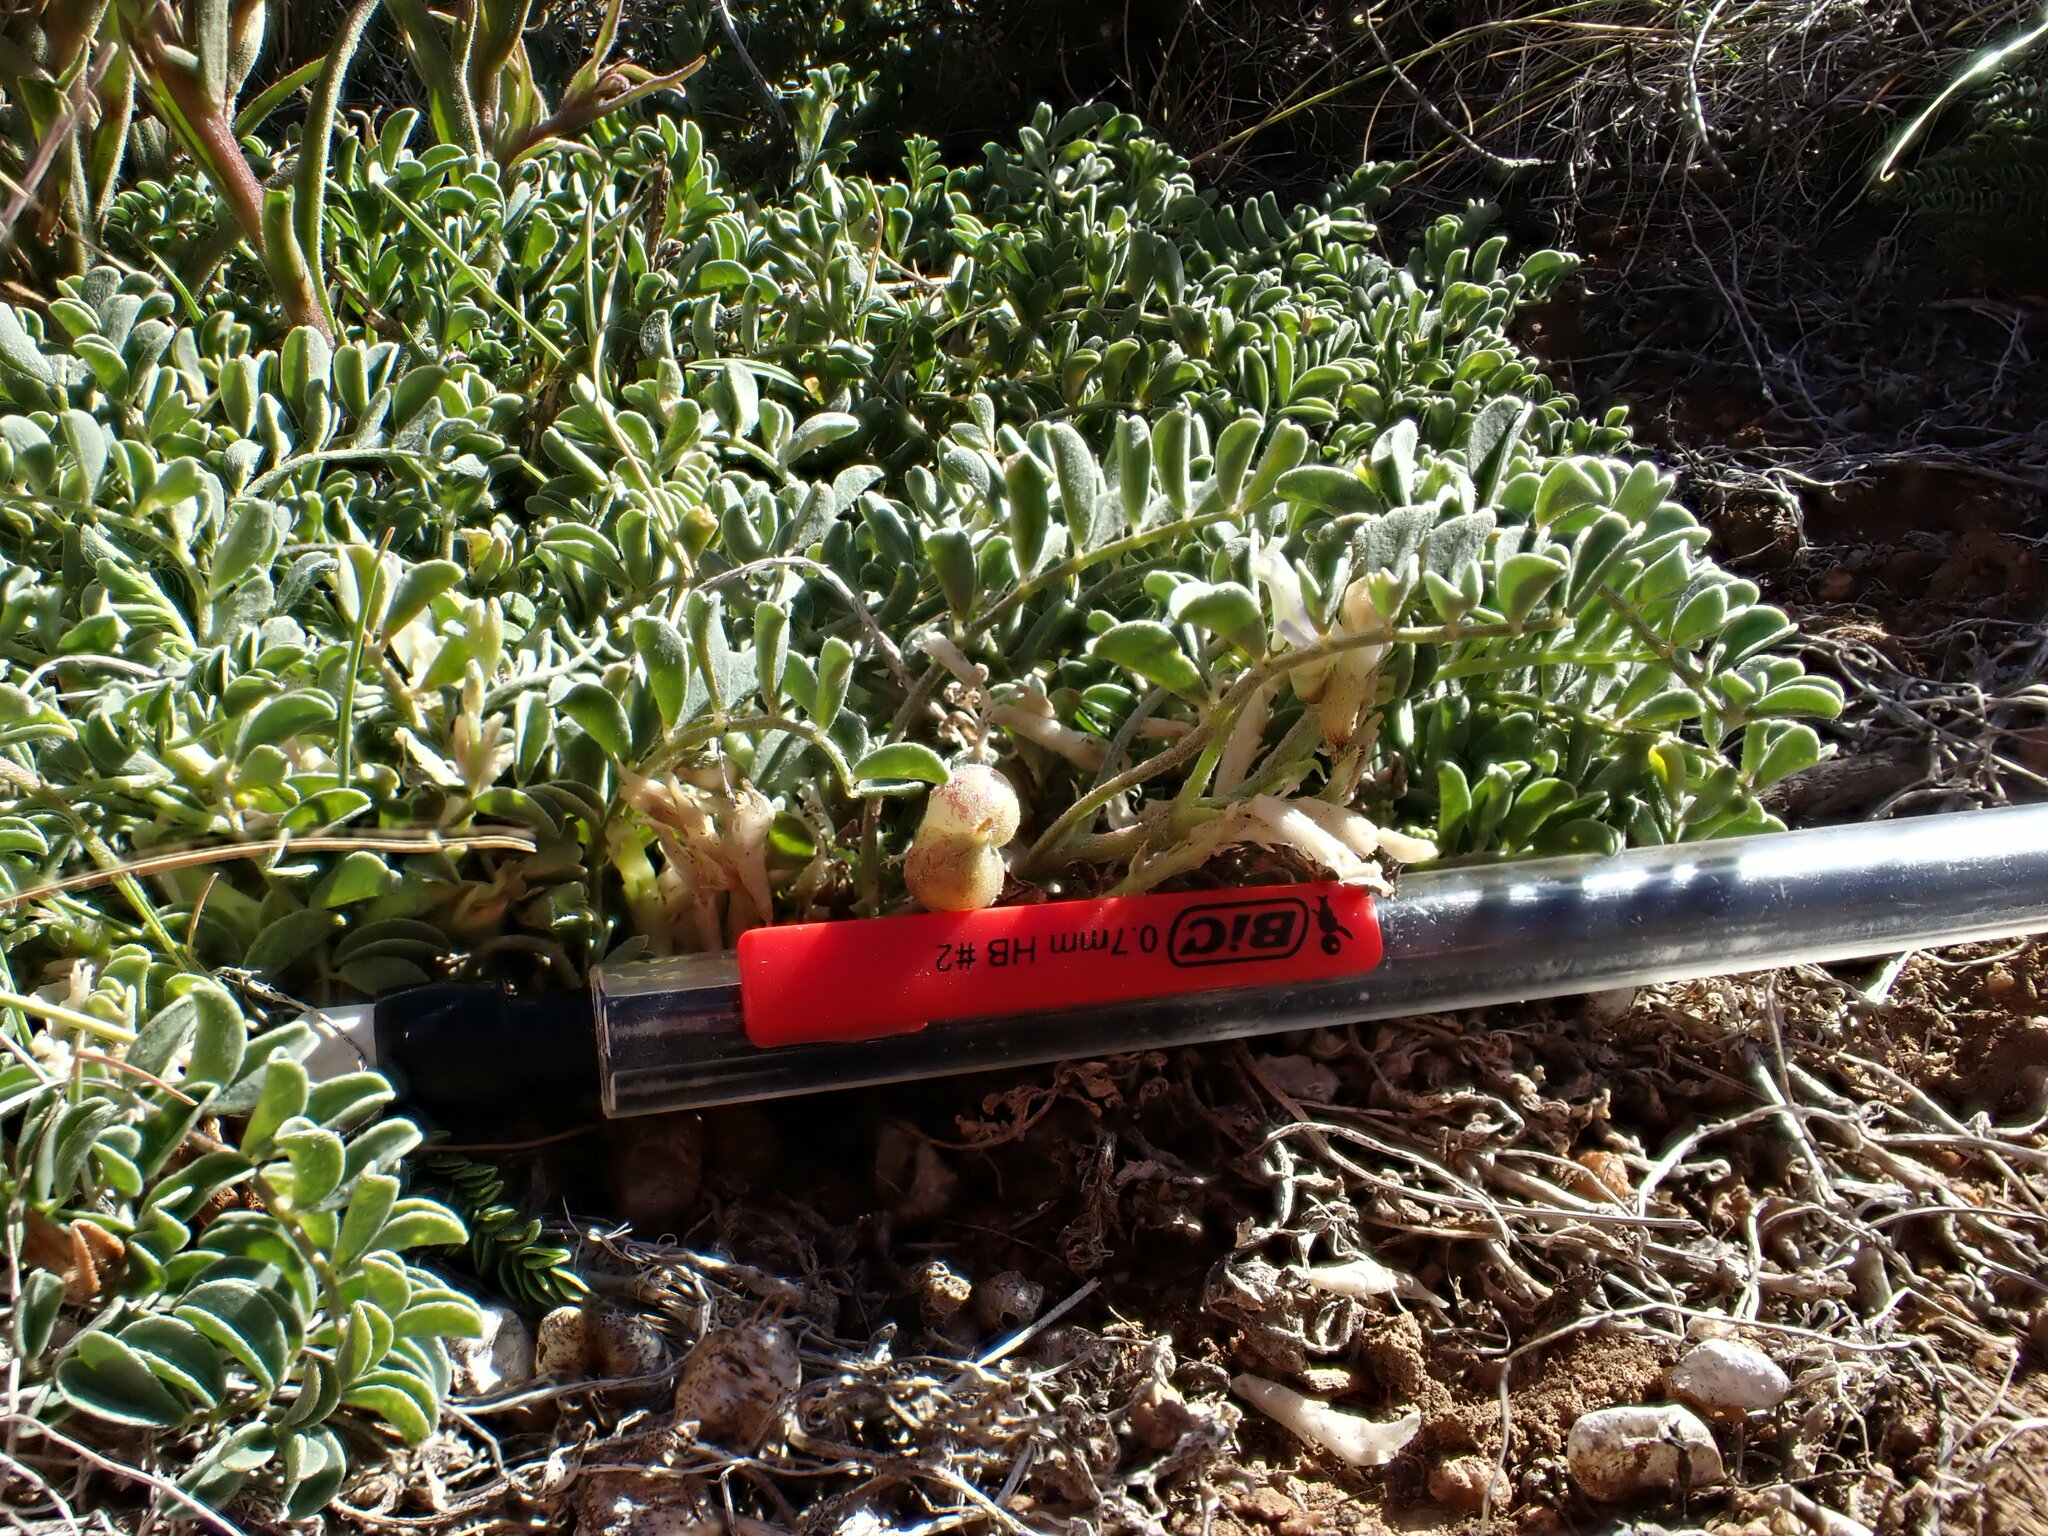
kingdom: Plantae
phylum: Tracheophyta
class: Magnoliopsida
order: Fabales
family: Fabaceae
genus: Astragalus
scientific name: Astragalus lentiginosus
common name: Freckled milkvetch
